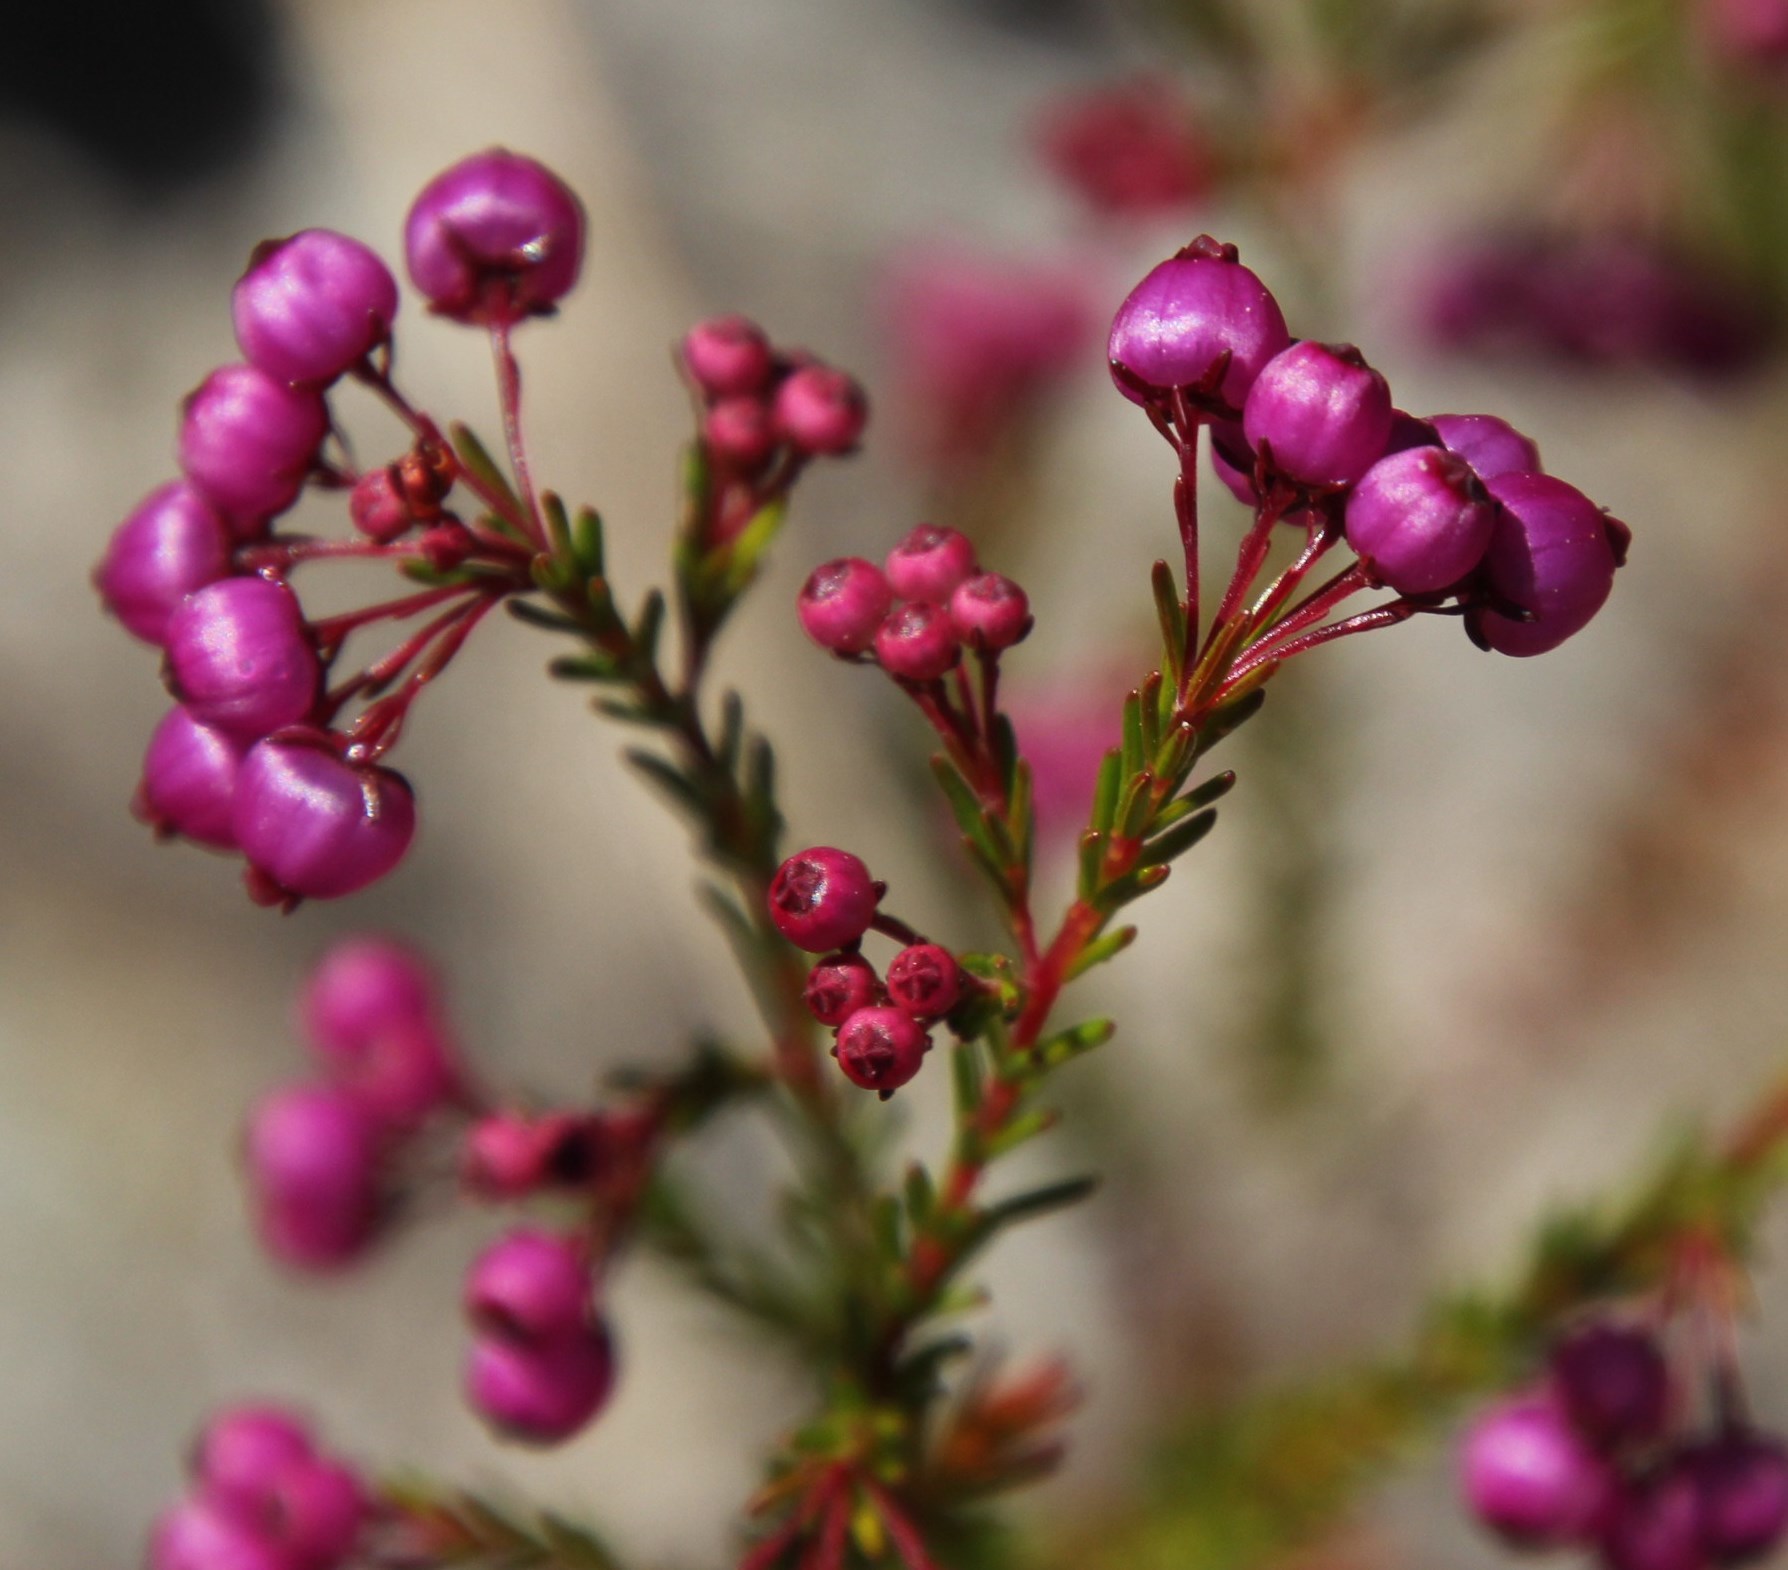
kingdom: Plantae
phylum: Tracheophyta
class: Magnoliopsida
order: Ericales
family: Ericaceae
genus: Erica
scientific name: Erica multumbellifera
